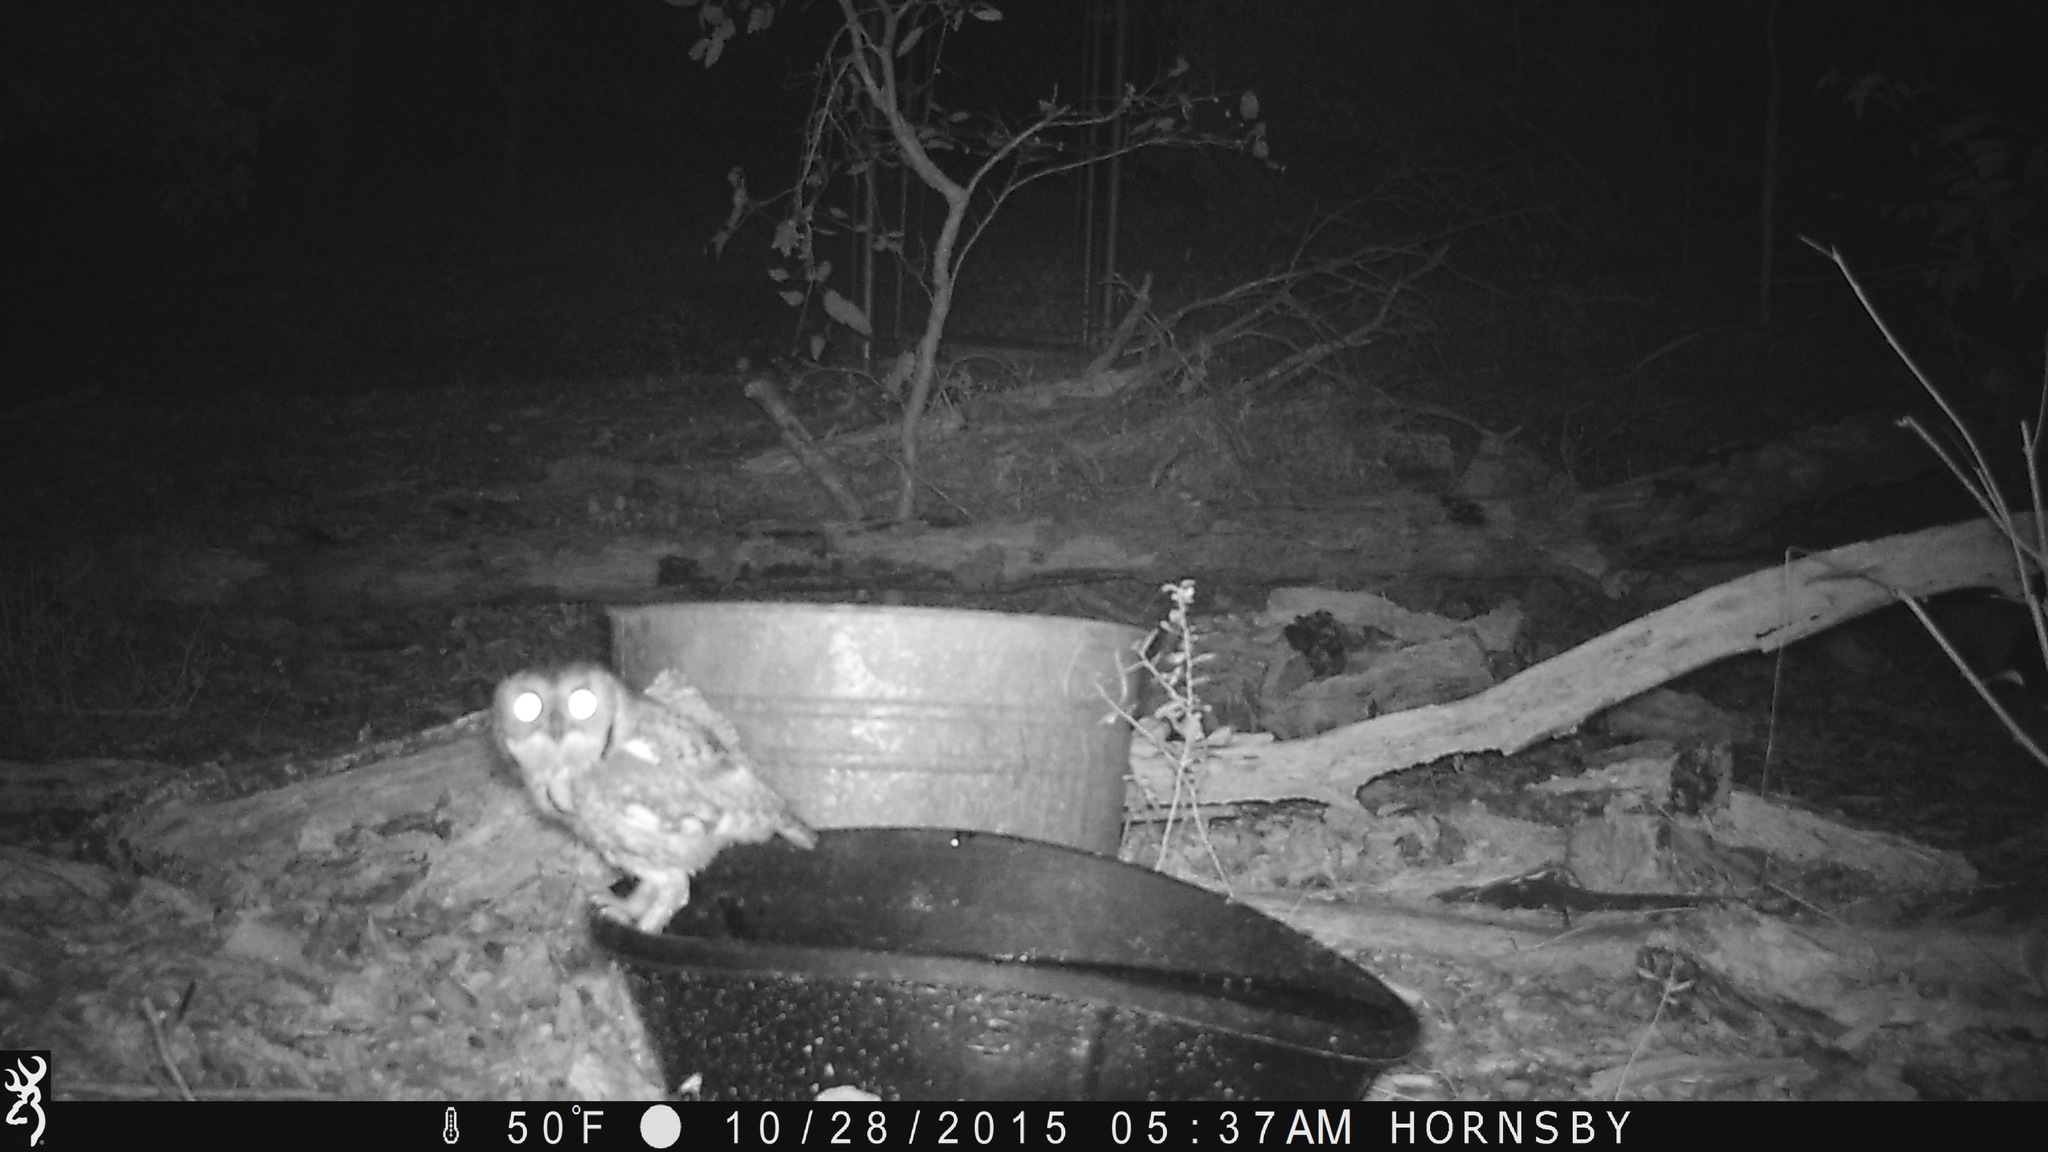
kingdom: Animalia
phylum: Chordata
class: Aves
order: Strigiformes
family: Strigidae
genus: Megascops
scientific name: Megascops asio
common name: Eastern screech-owl
